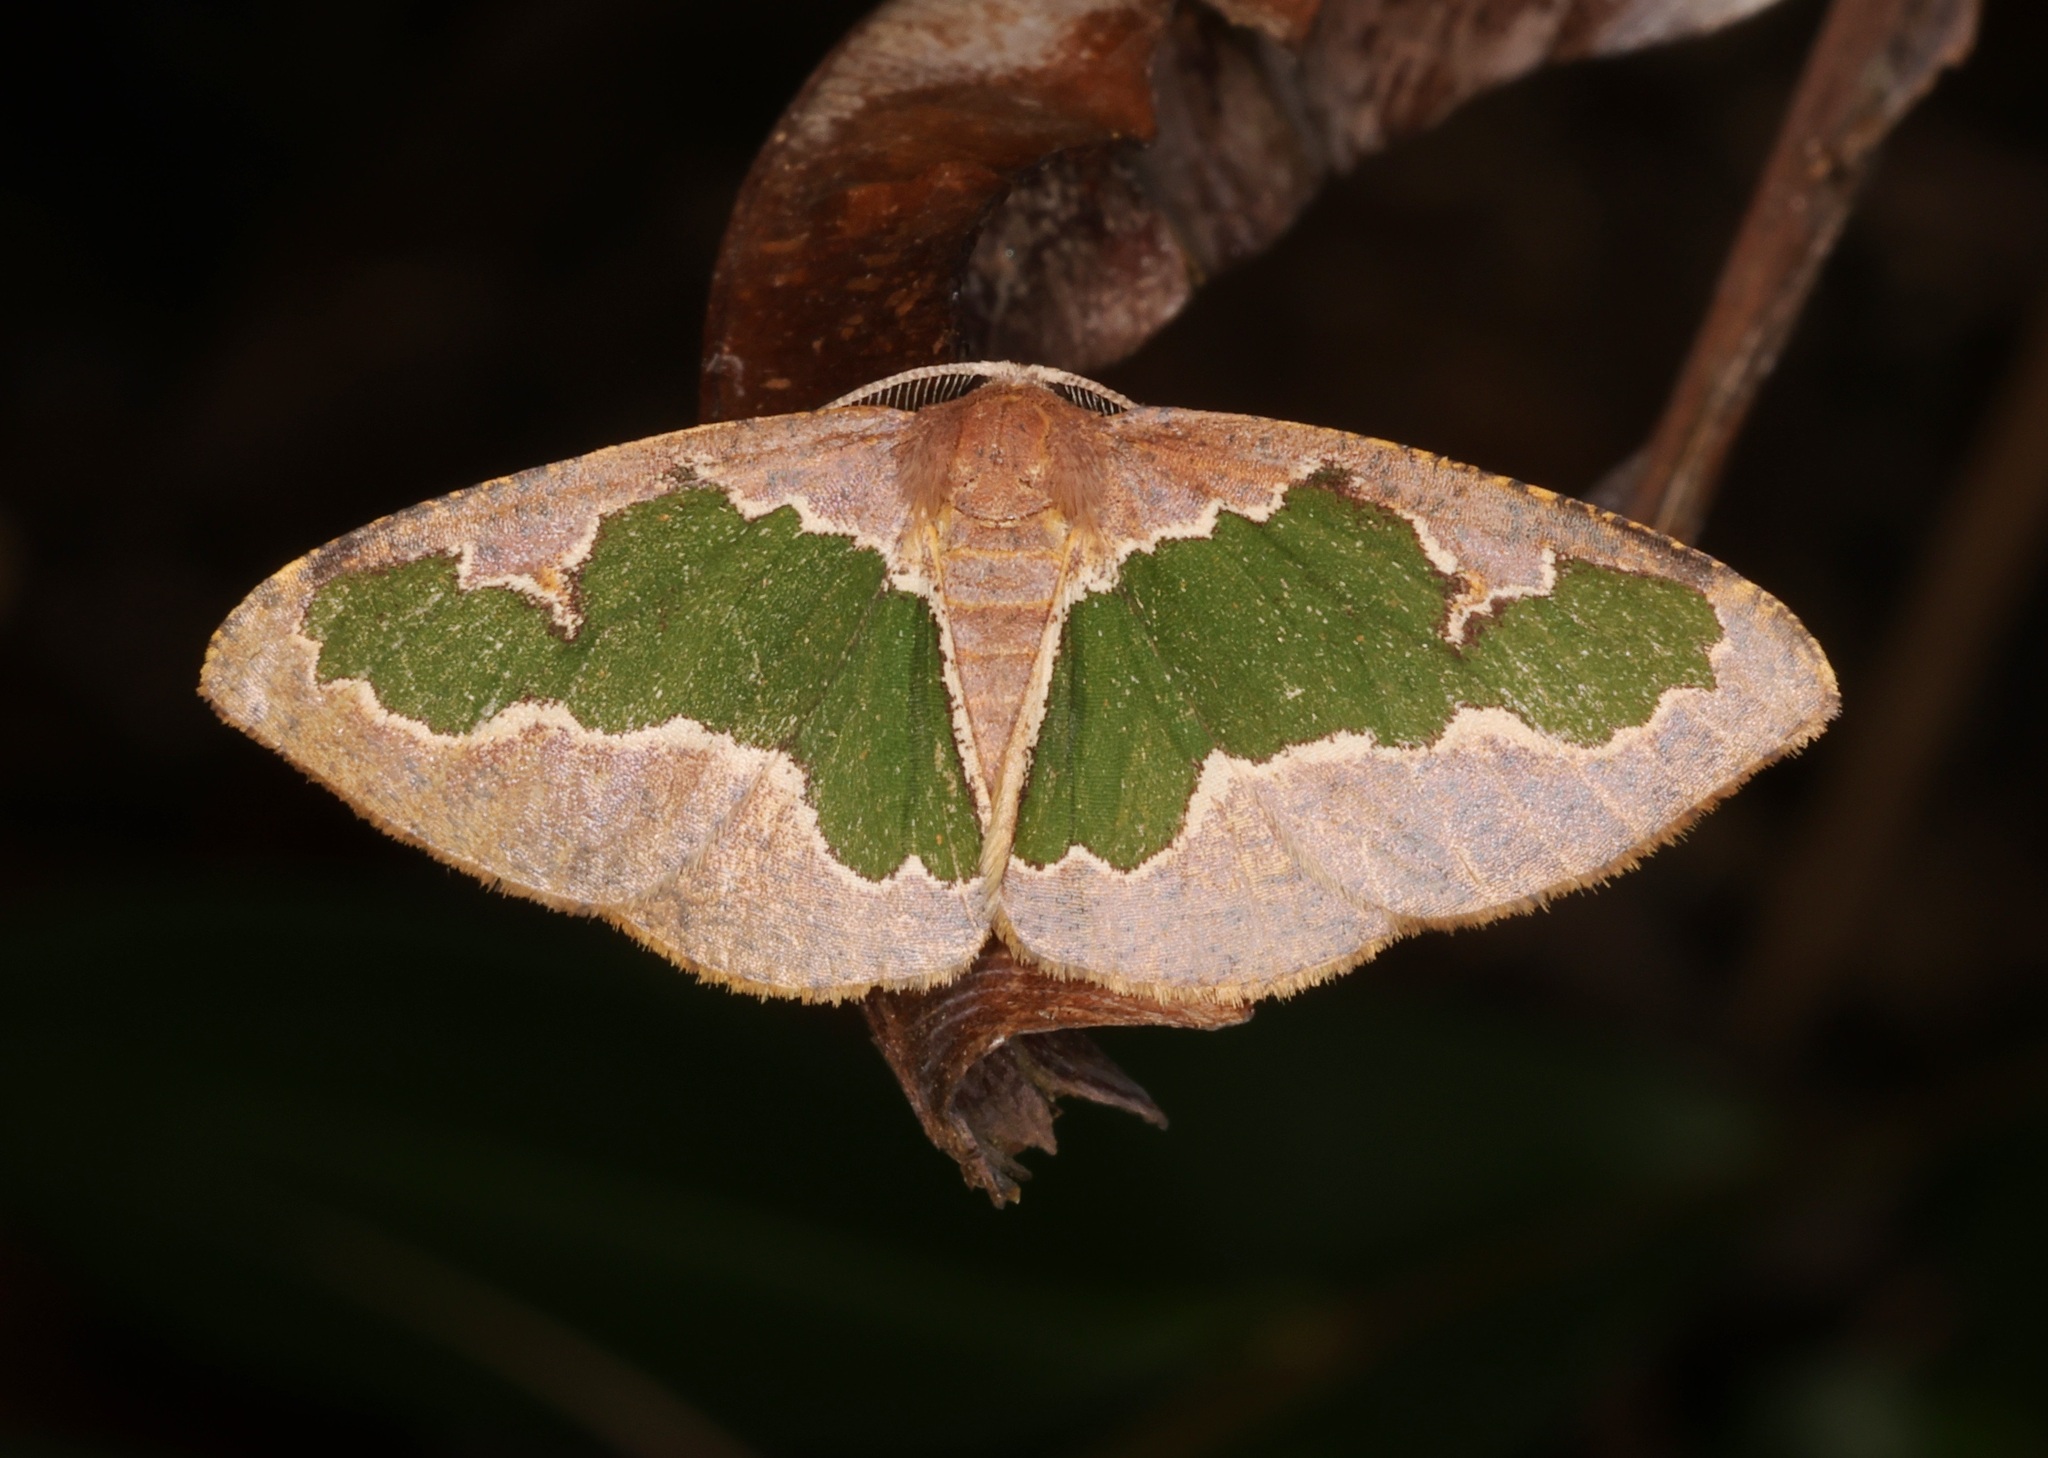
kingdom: Animalia
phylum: Arthropoda
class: Insecta
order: Lepidoptera
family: Geometridae
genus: Celenna
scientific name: Celenna festivaria
